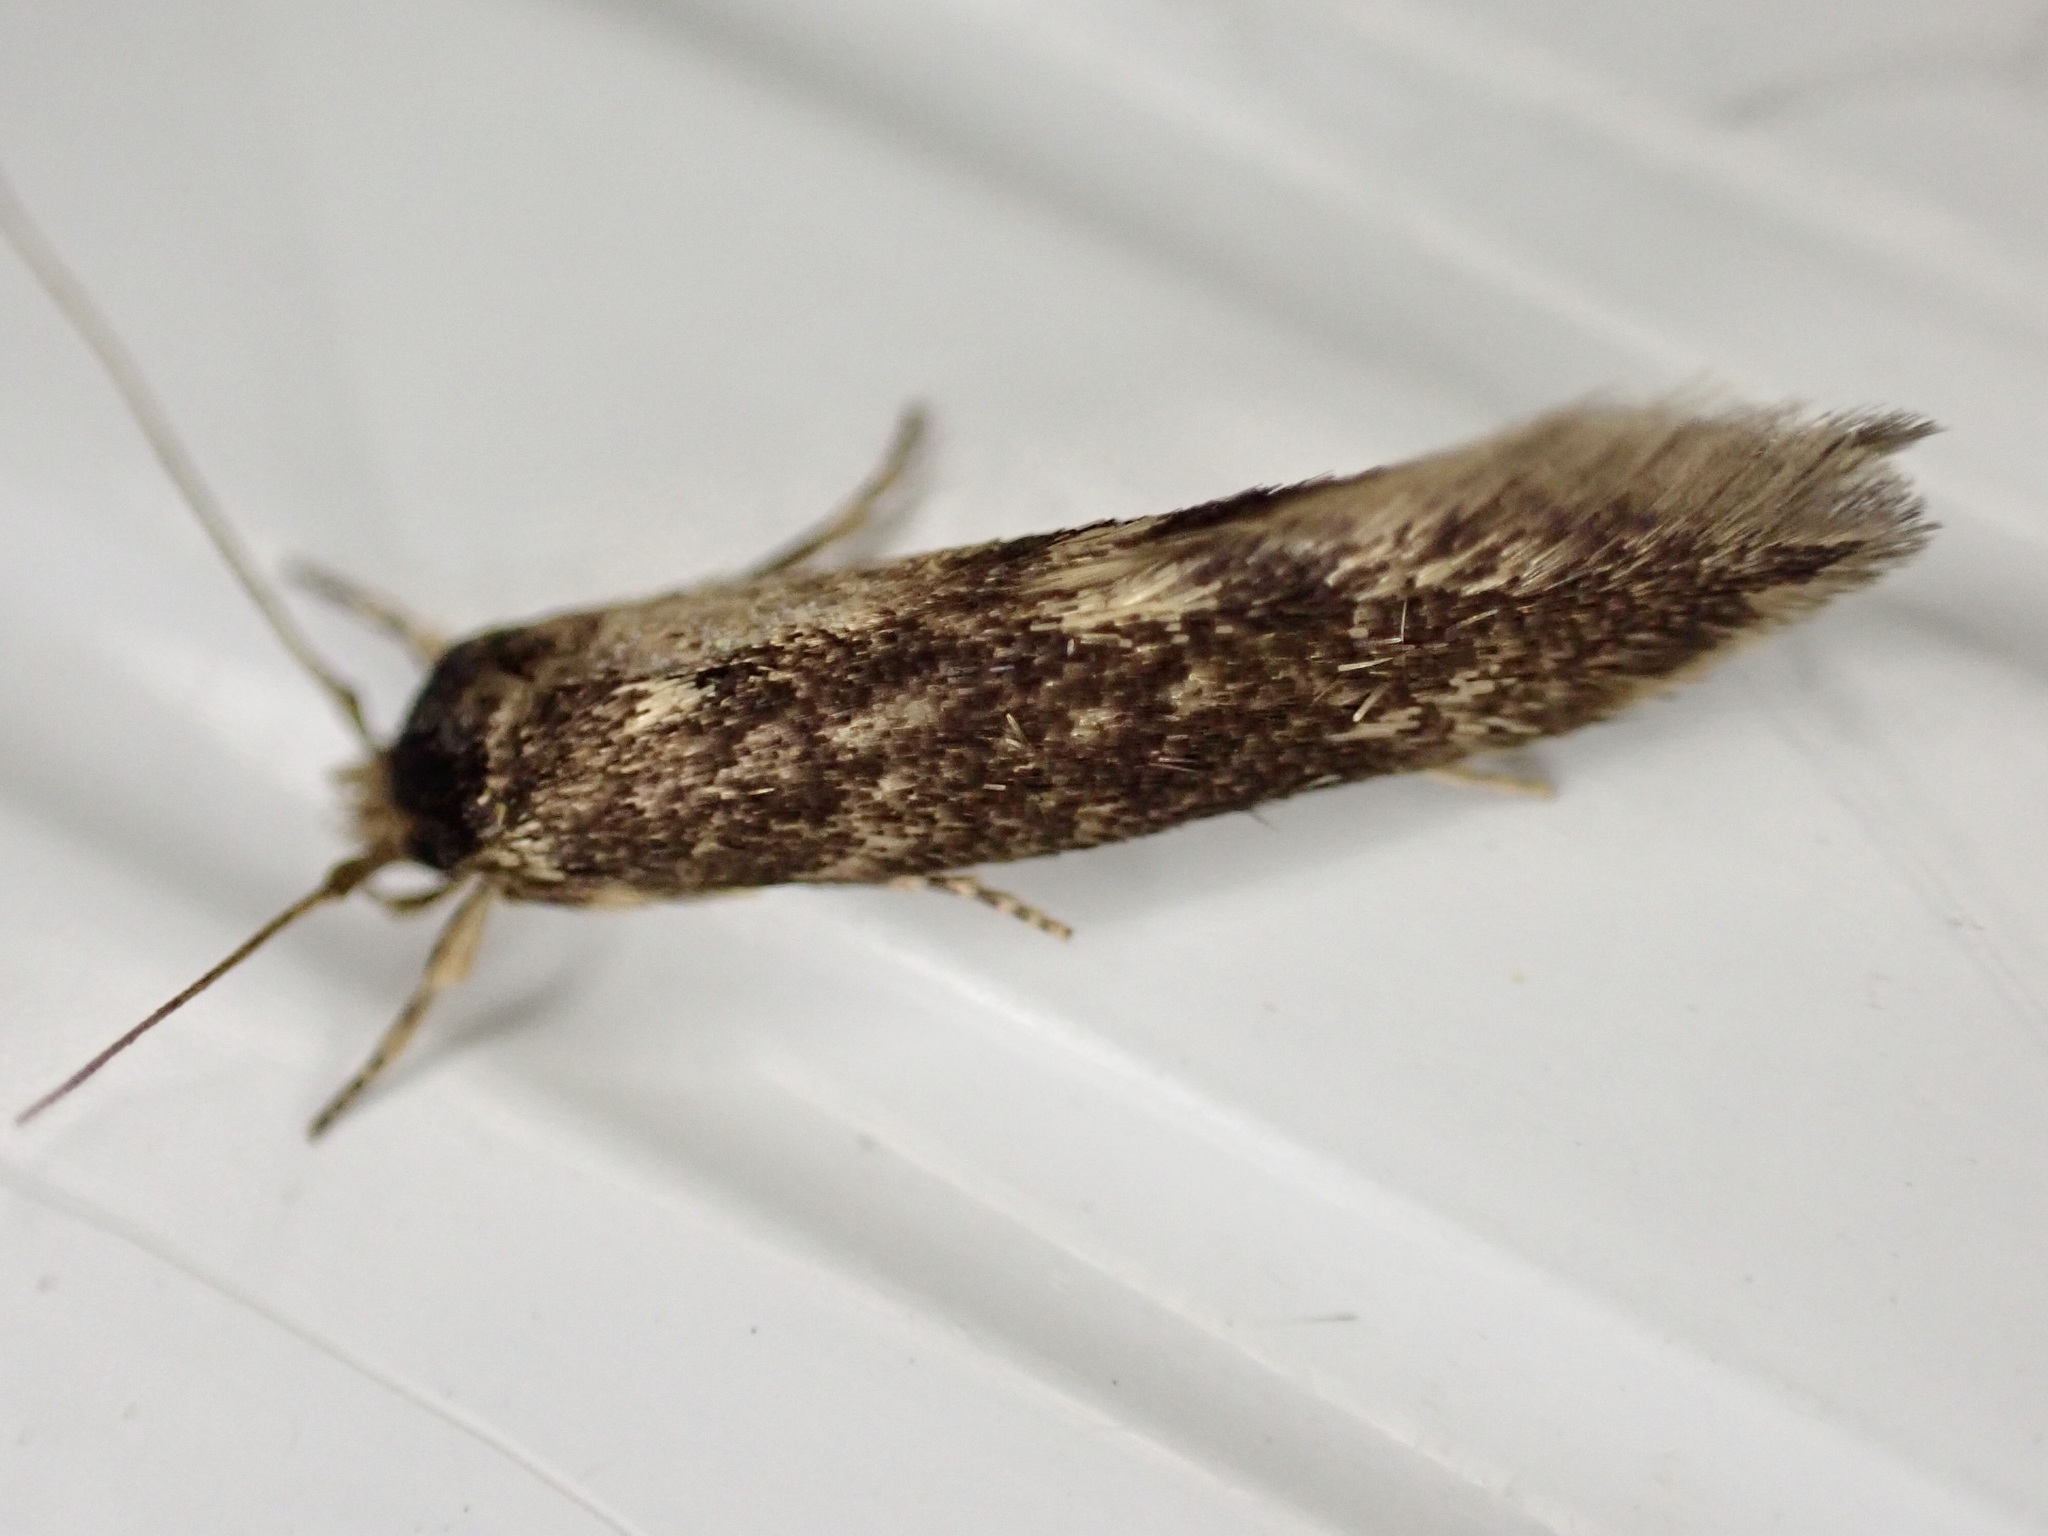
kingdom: Animalia
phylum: Arthropoda
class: Insecta
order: Lepidoptera
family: Tineidae
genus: Opogona
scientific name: Opogona omoscopa
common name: Moth
